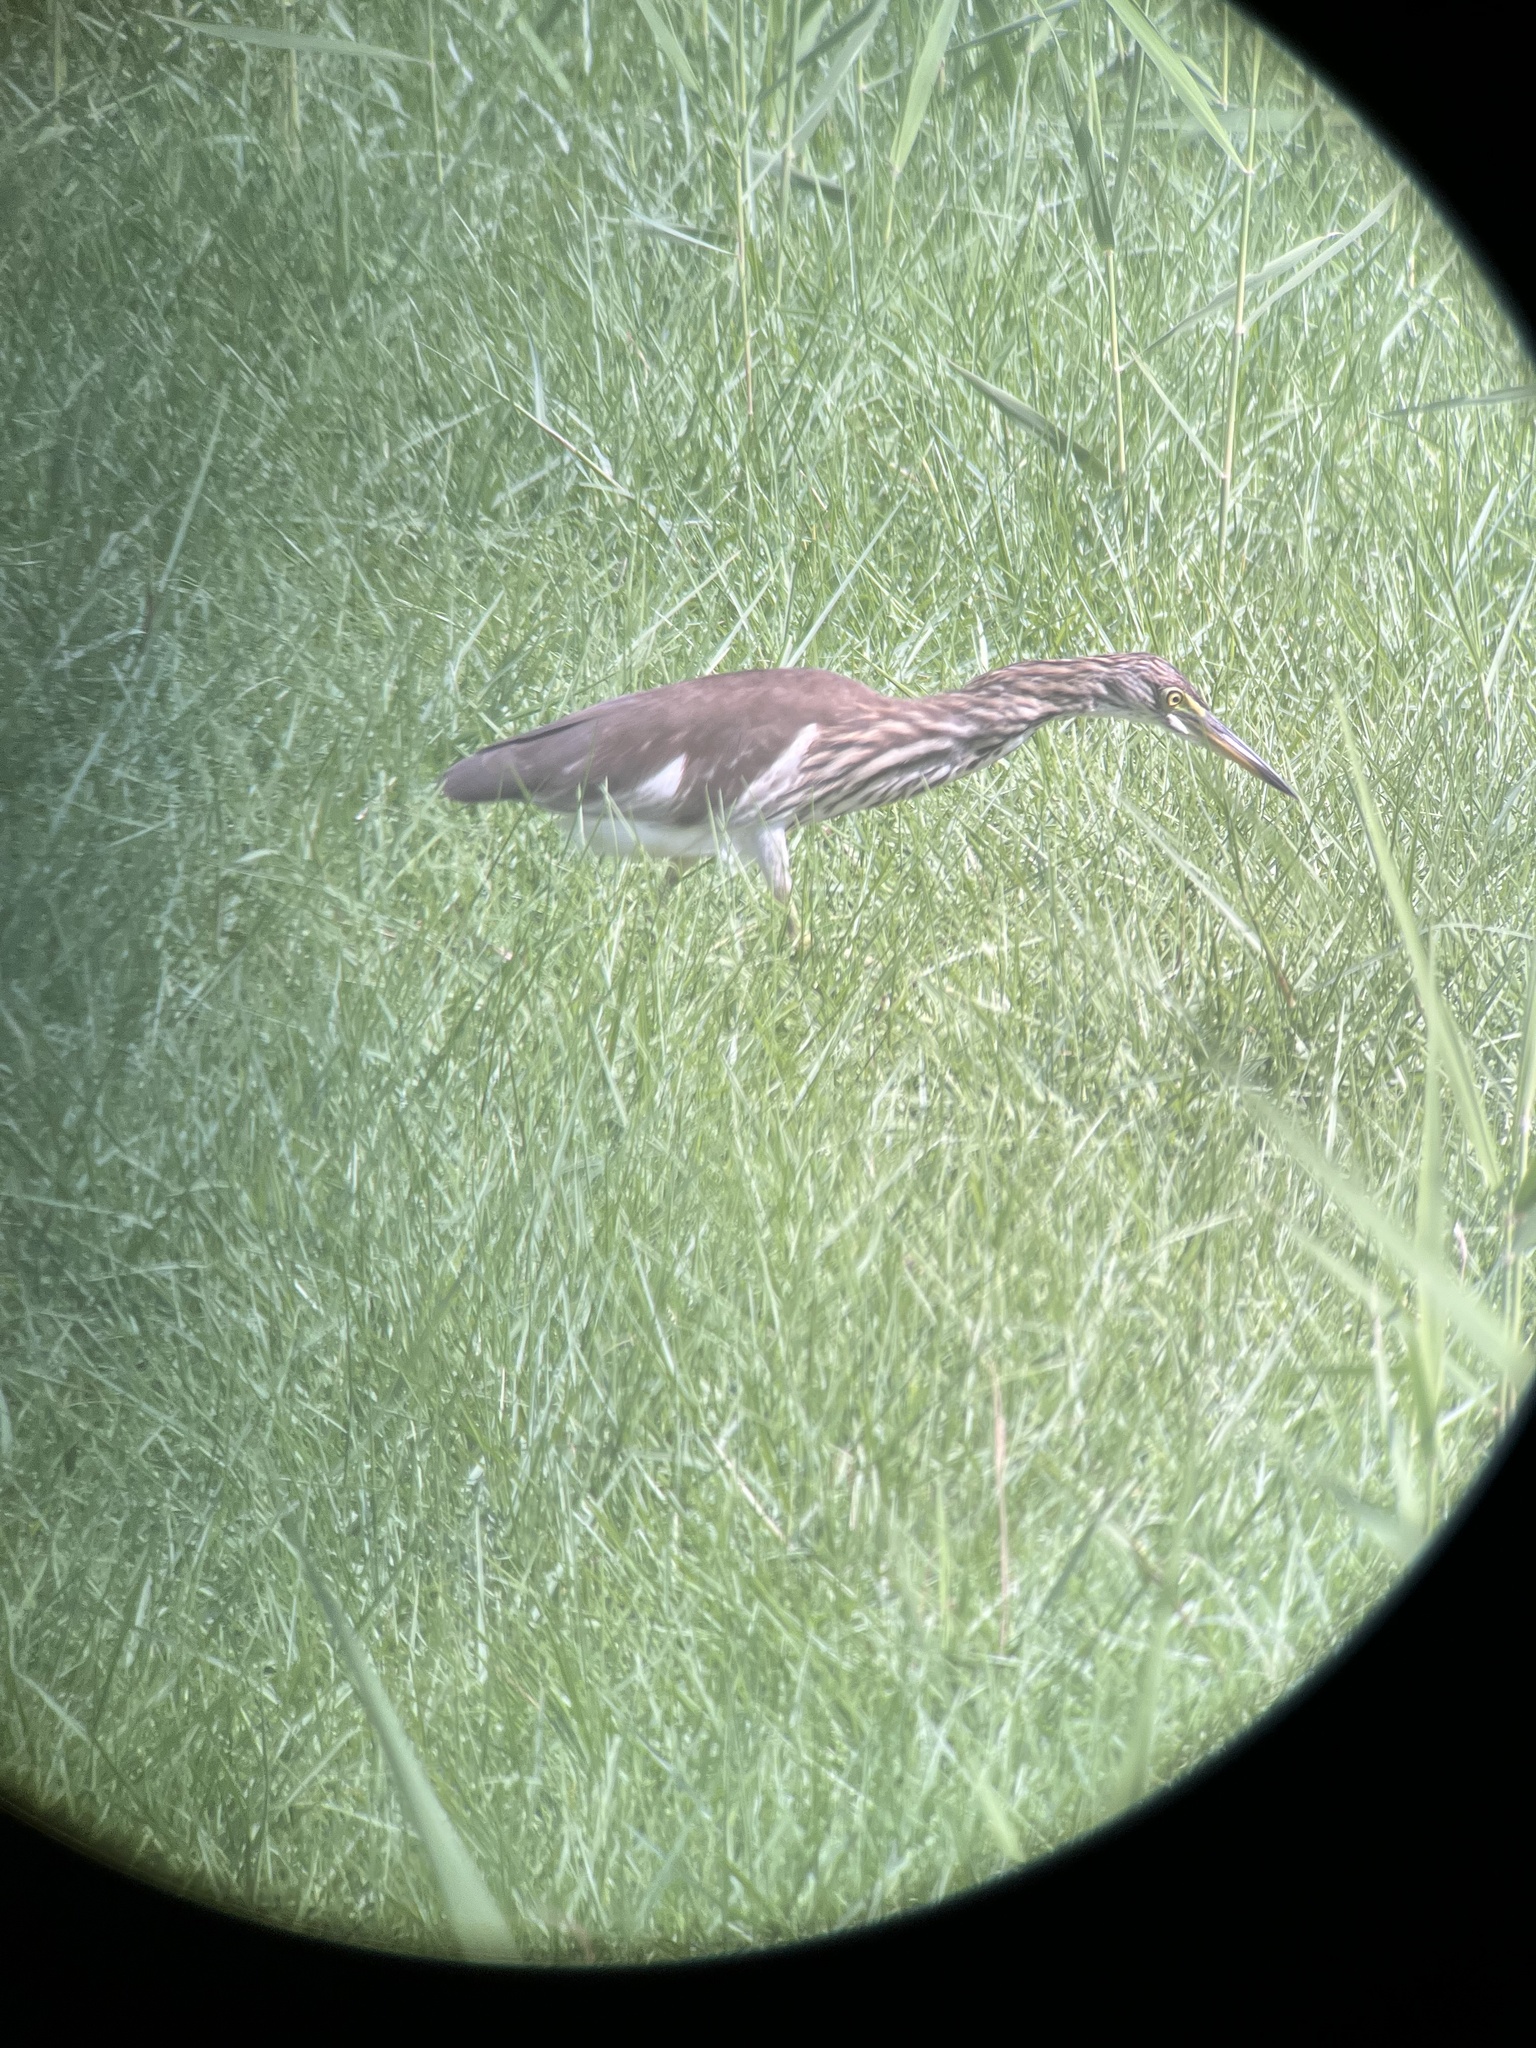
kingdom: Animalia
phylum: Chordata
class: Aves
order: Pelecaniformes
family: Ardeidae
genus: Ardeola
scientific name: Ardeola bacchus
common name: Chinese pond heron
